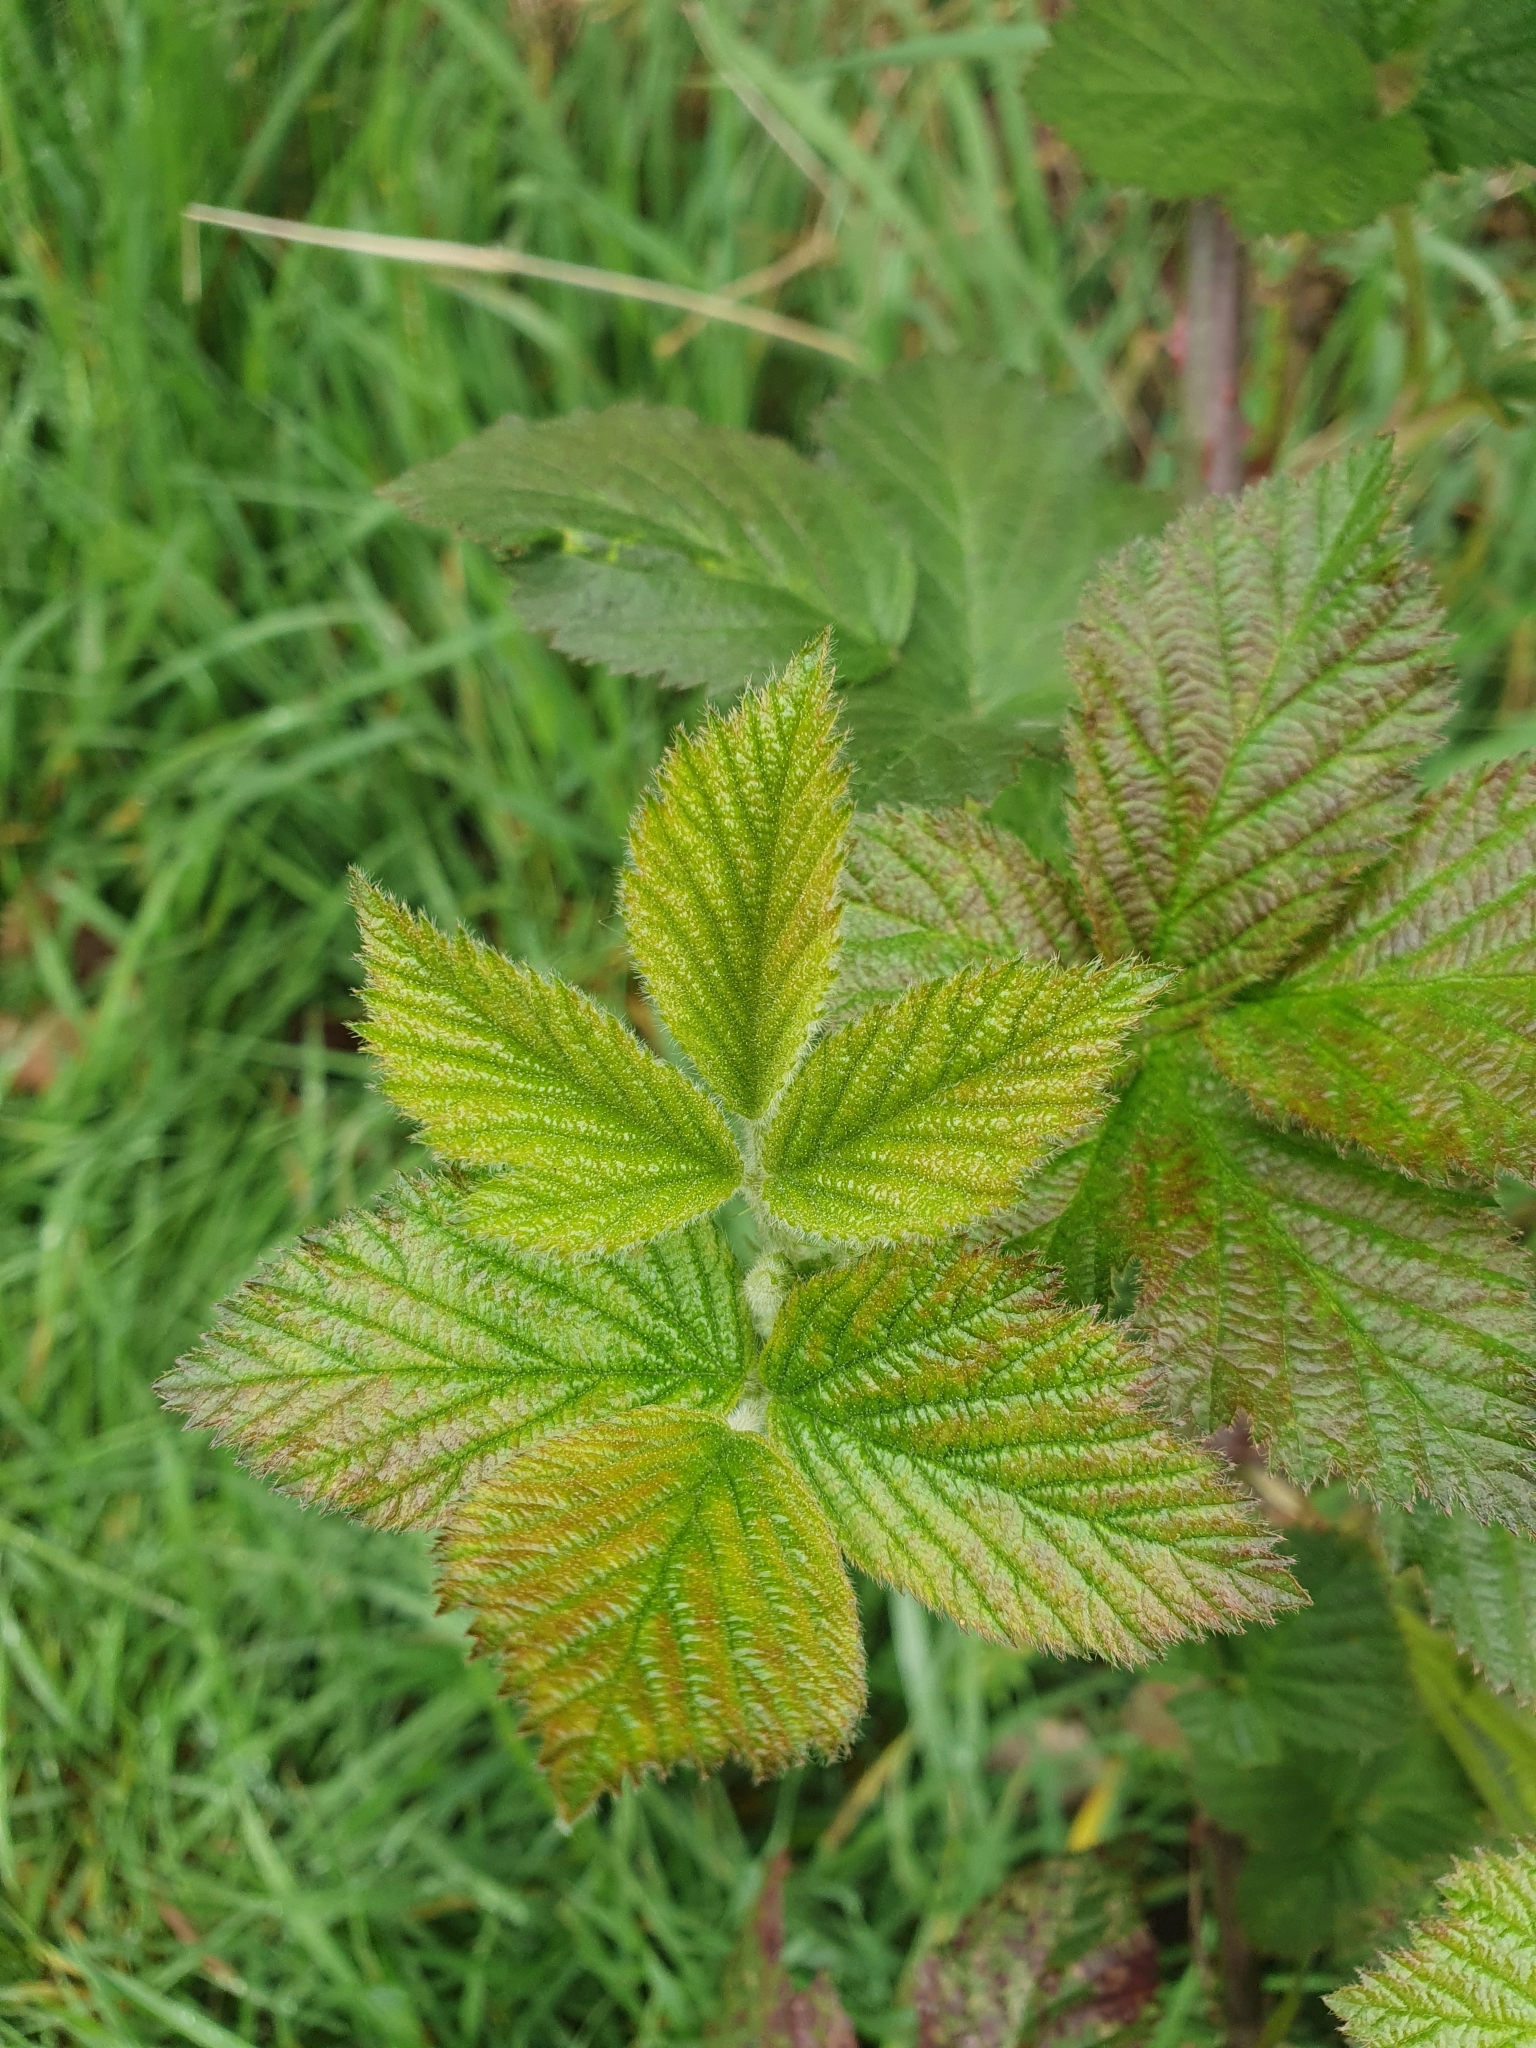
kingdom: Plantae
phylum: Tracheophyta
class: Magnoliopsida
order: Rosales
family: Rosaceae
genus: Rubus
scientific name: Rubus fruticosus
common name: Blackberry, bramble
